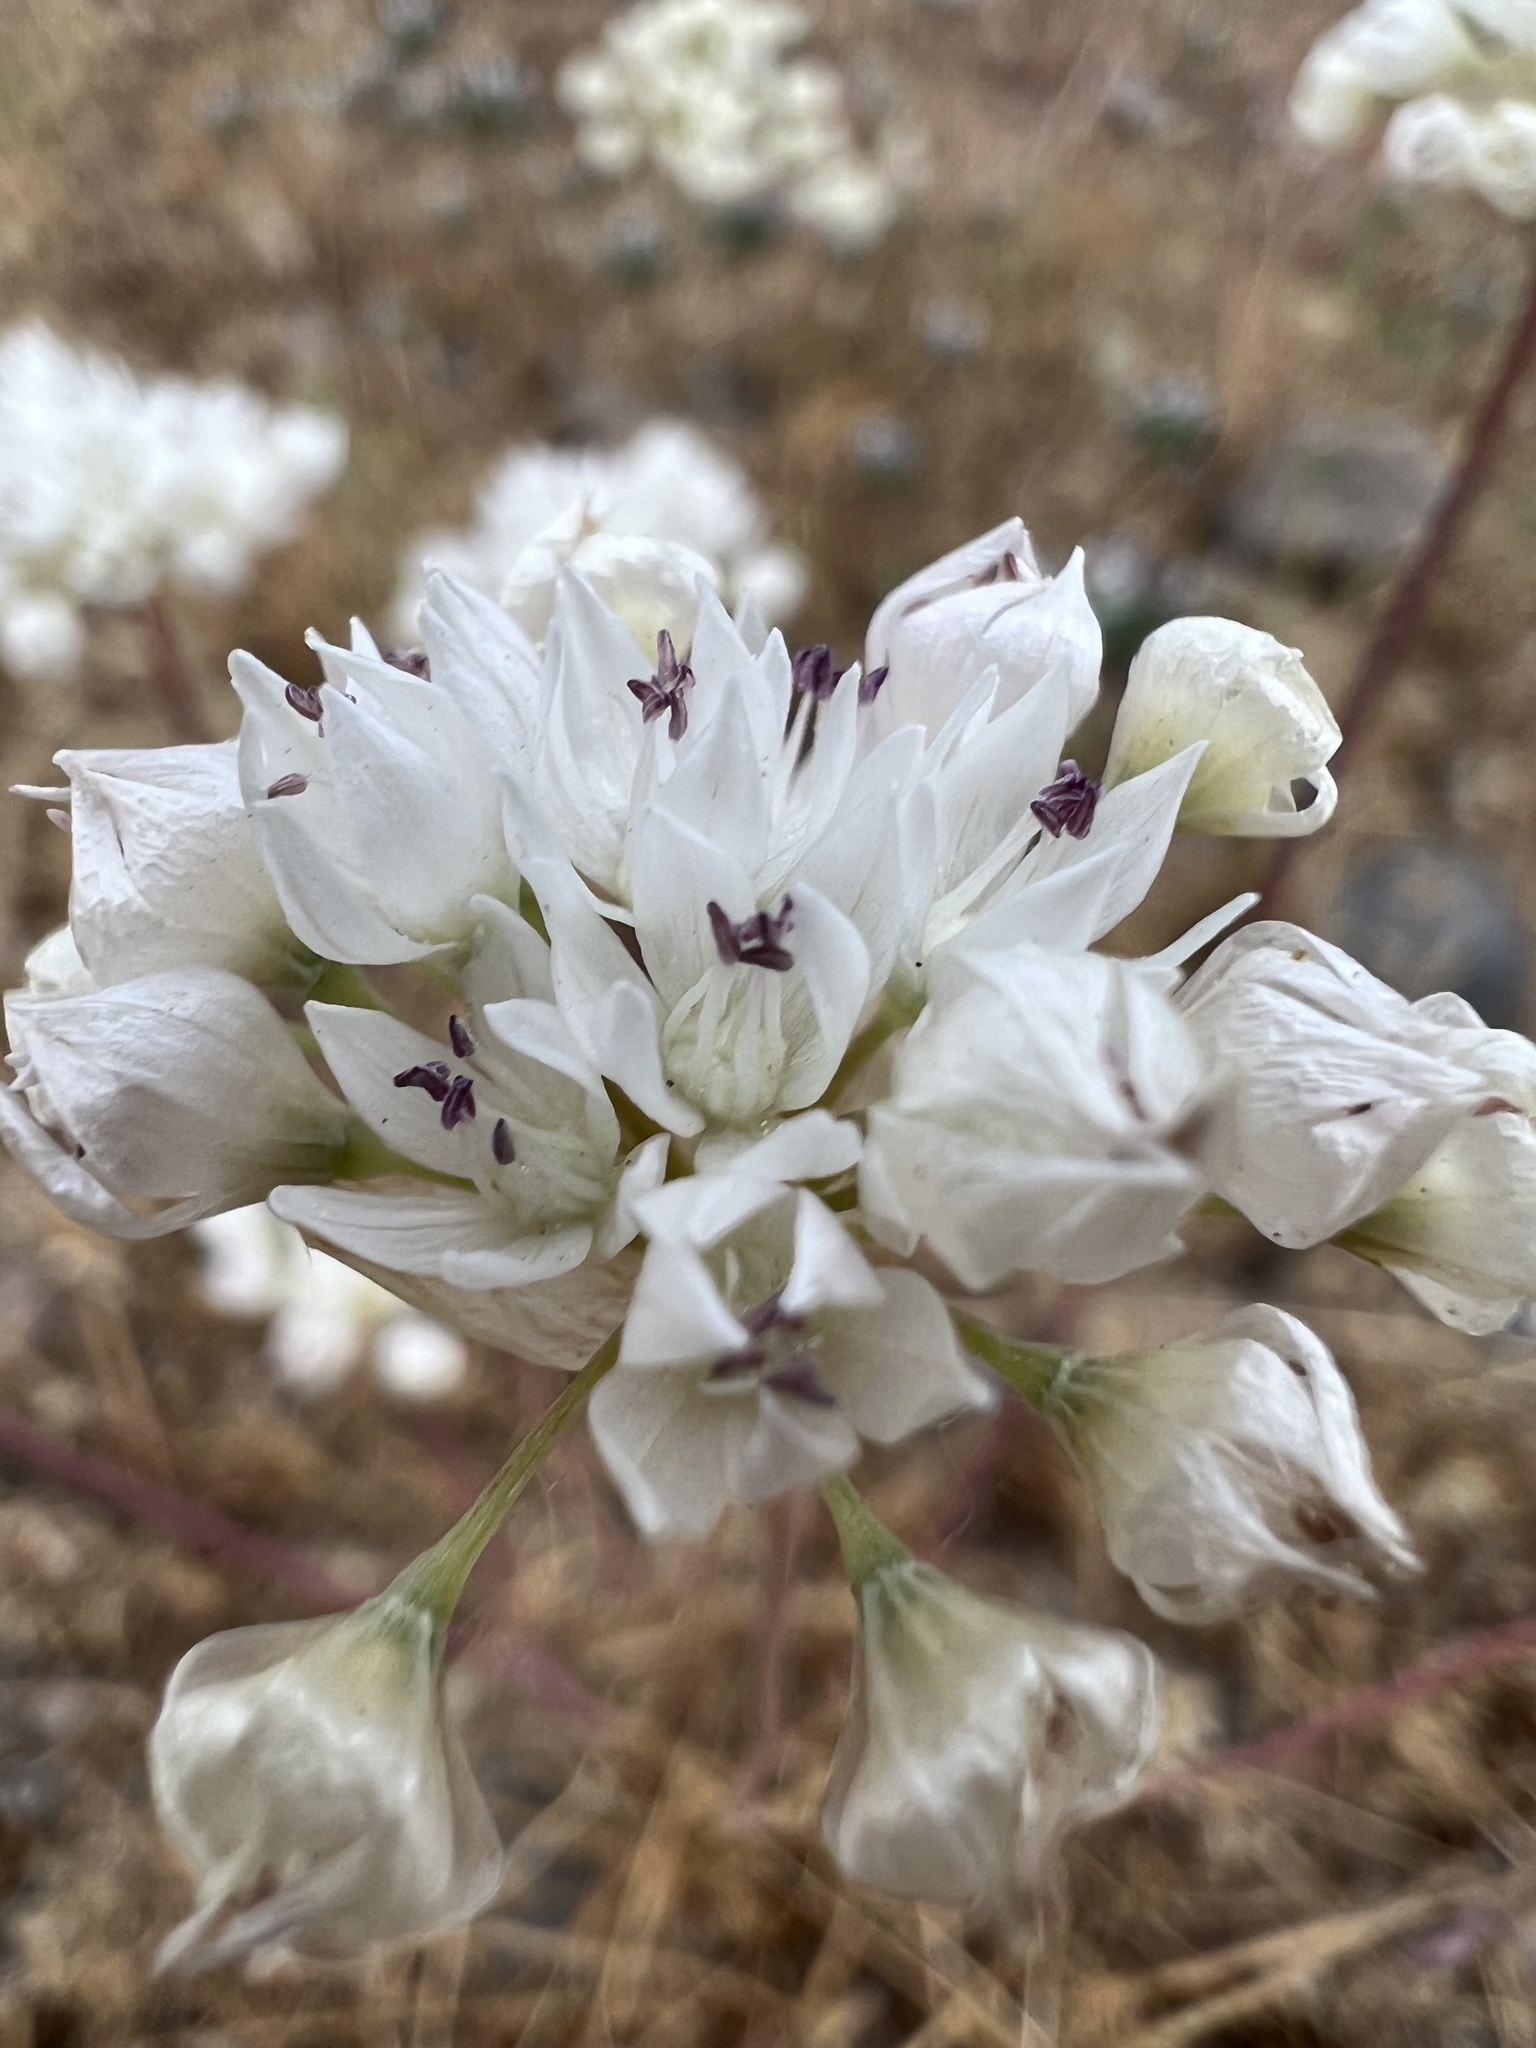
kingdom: Plantae
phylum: Tracheophyta
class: Liliopsida
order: Asparagales
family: Amaryllidaceae
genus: Allium
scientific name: Allium amplectens
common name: Narrow-leaved onion
